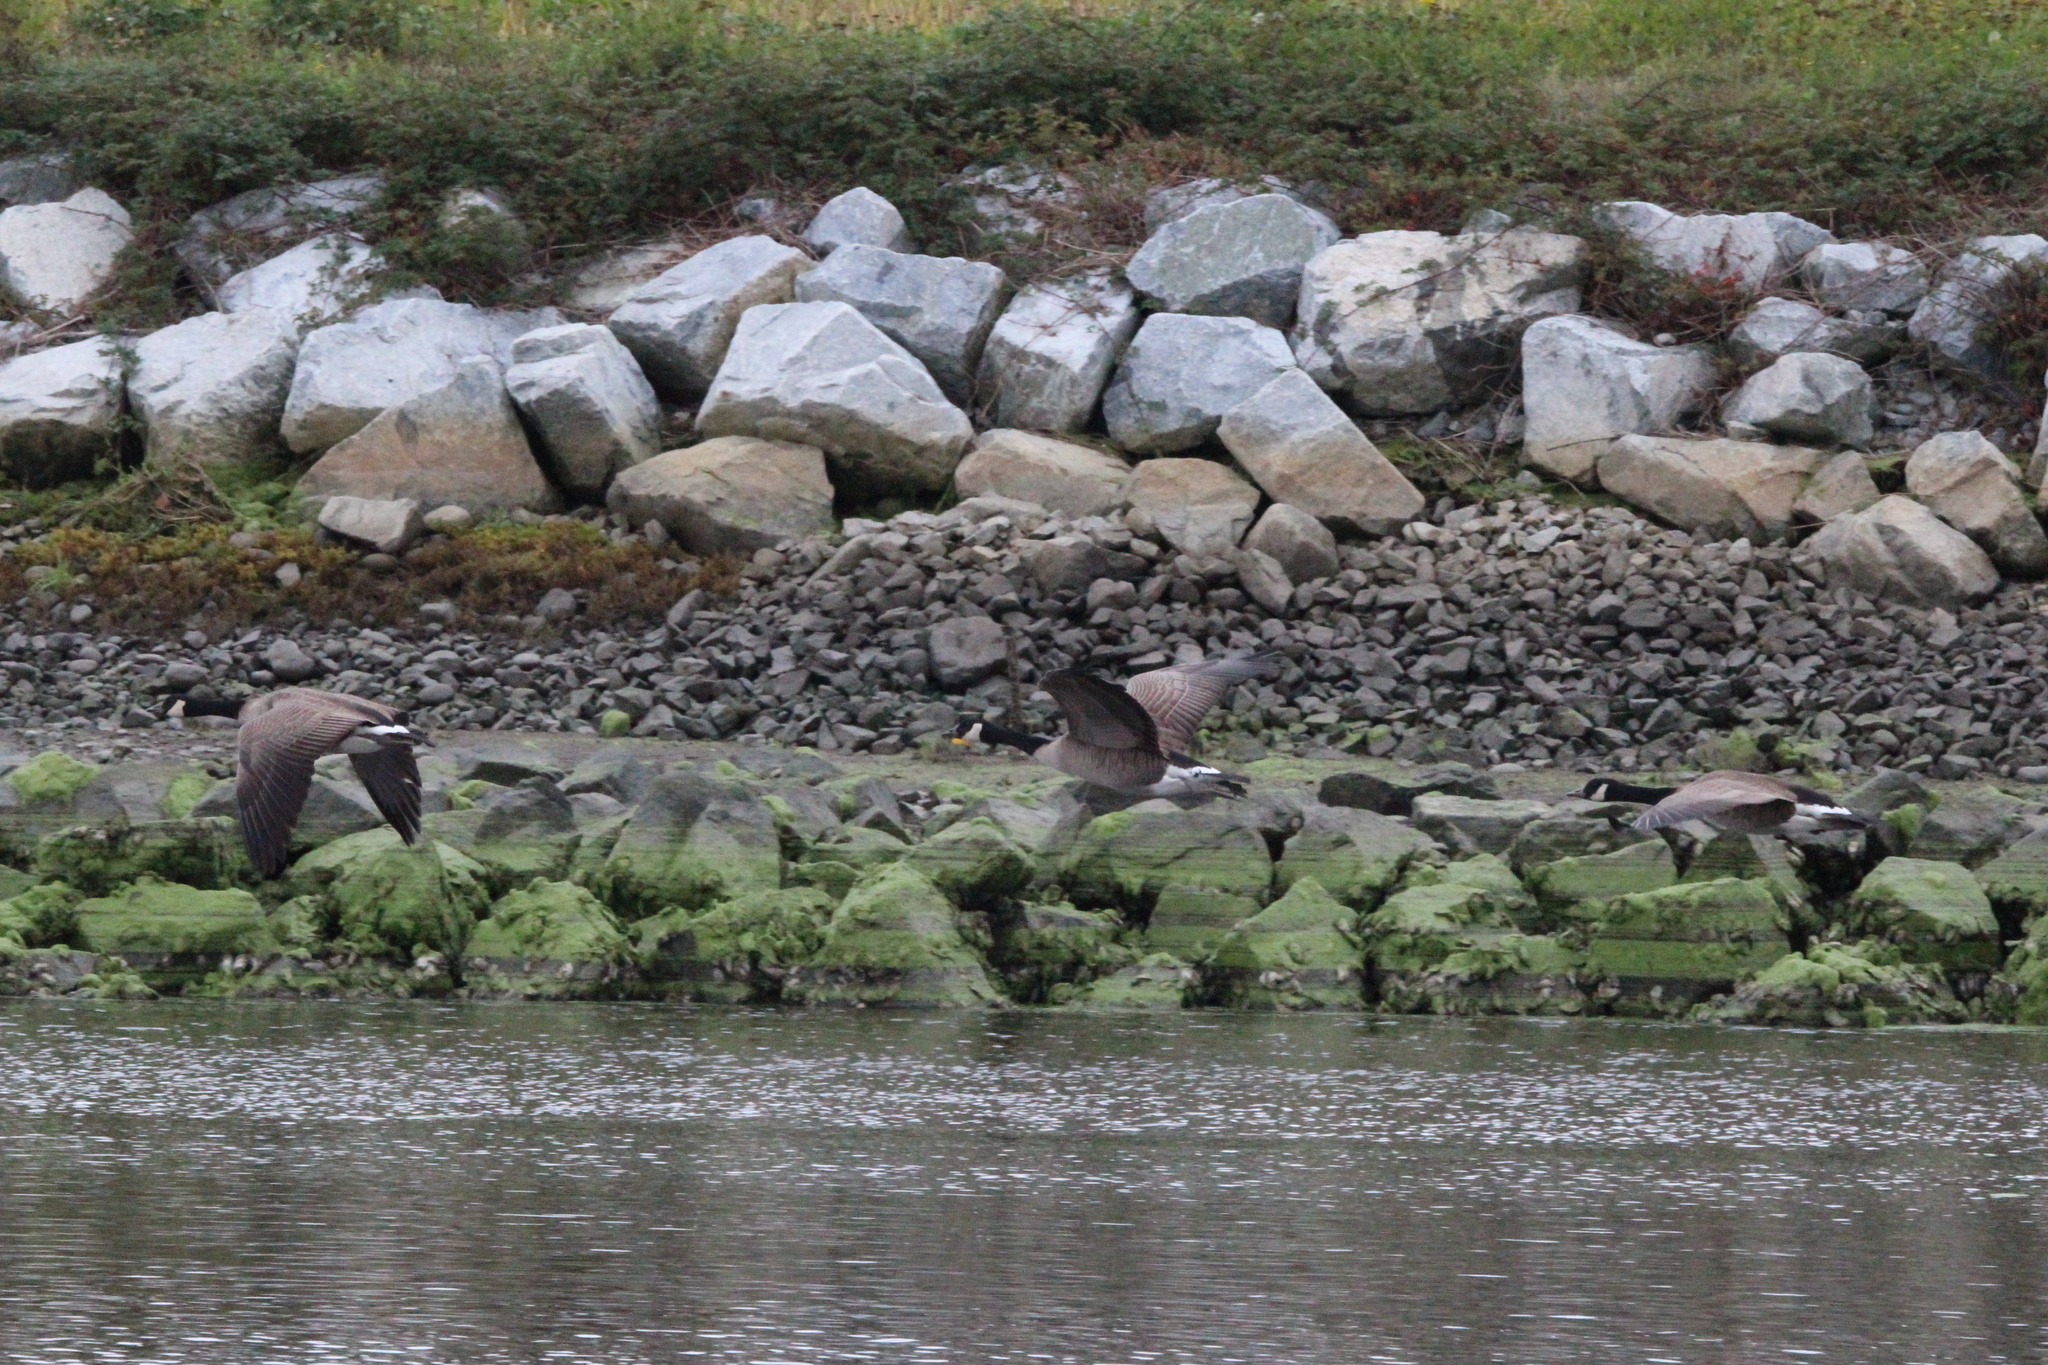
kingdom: Animalia
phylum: Chordata
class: Aves
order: Anseriformes
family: Anatidae
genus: Branta
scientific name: Branta canadensis
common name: Canada goose
